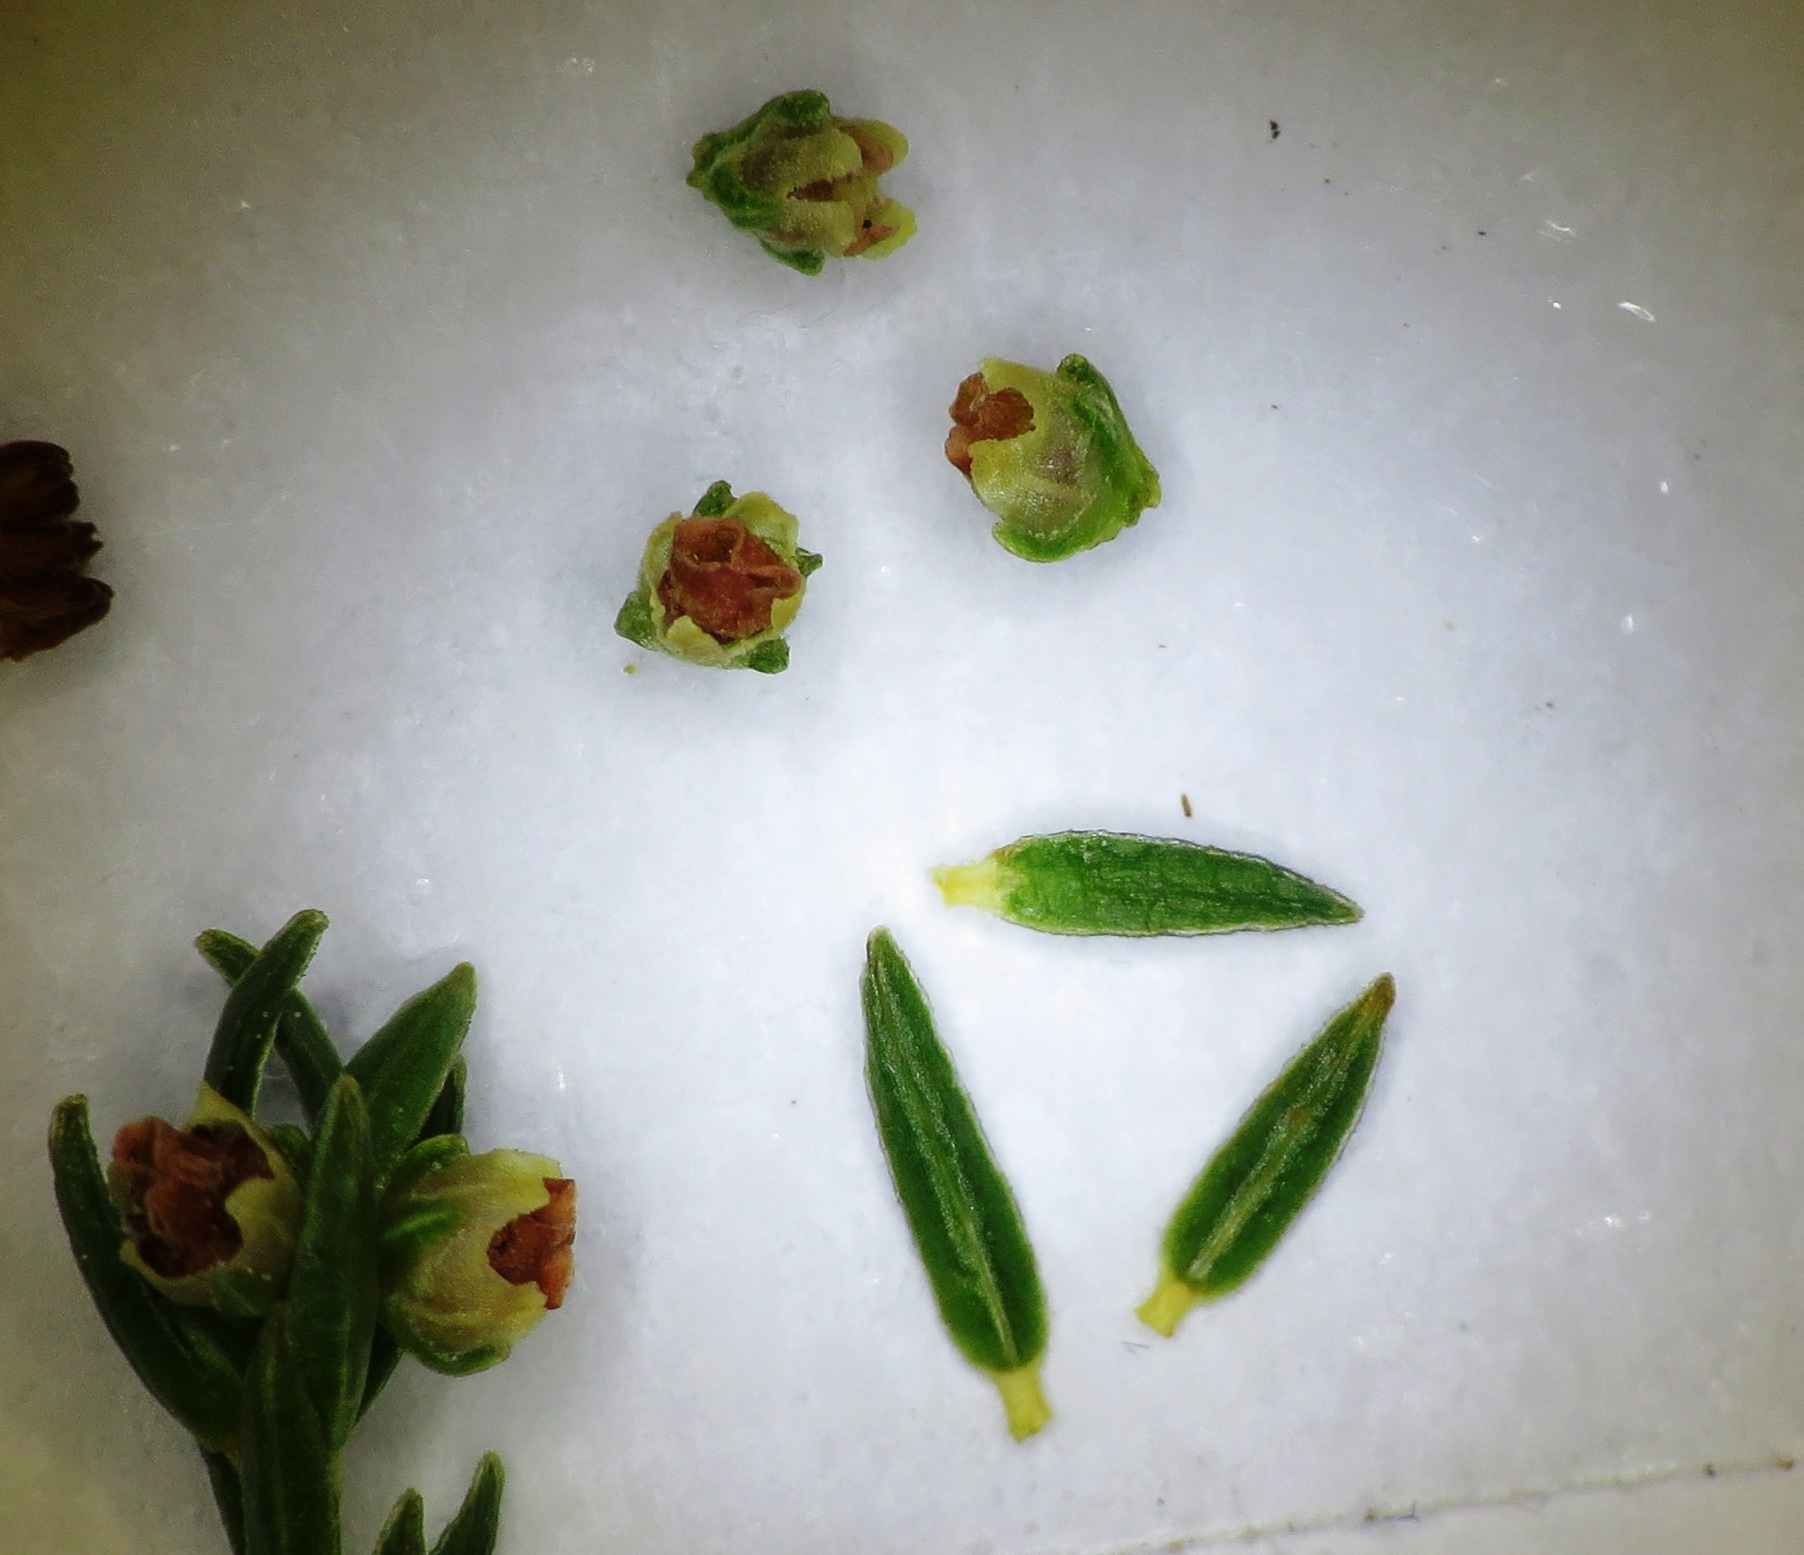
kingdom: Plantae
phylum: Tracheophyta
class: Magnoliopsida
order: Ericales
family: Ericaceae
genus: Erica
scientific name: Erica bredasiana
